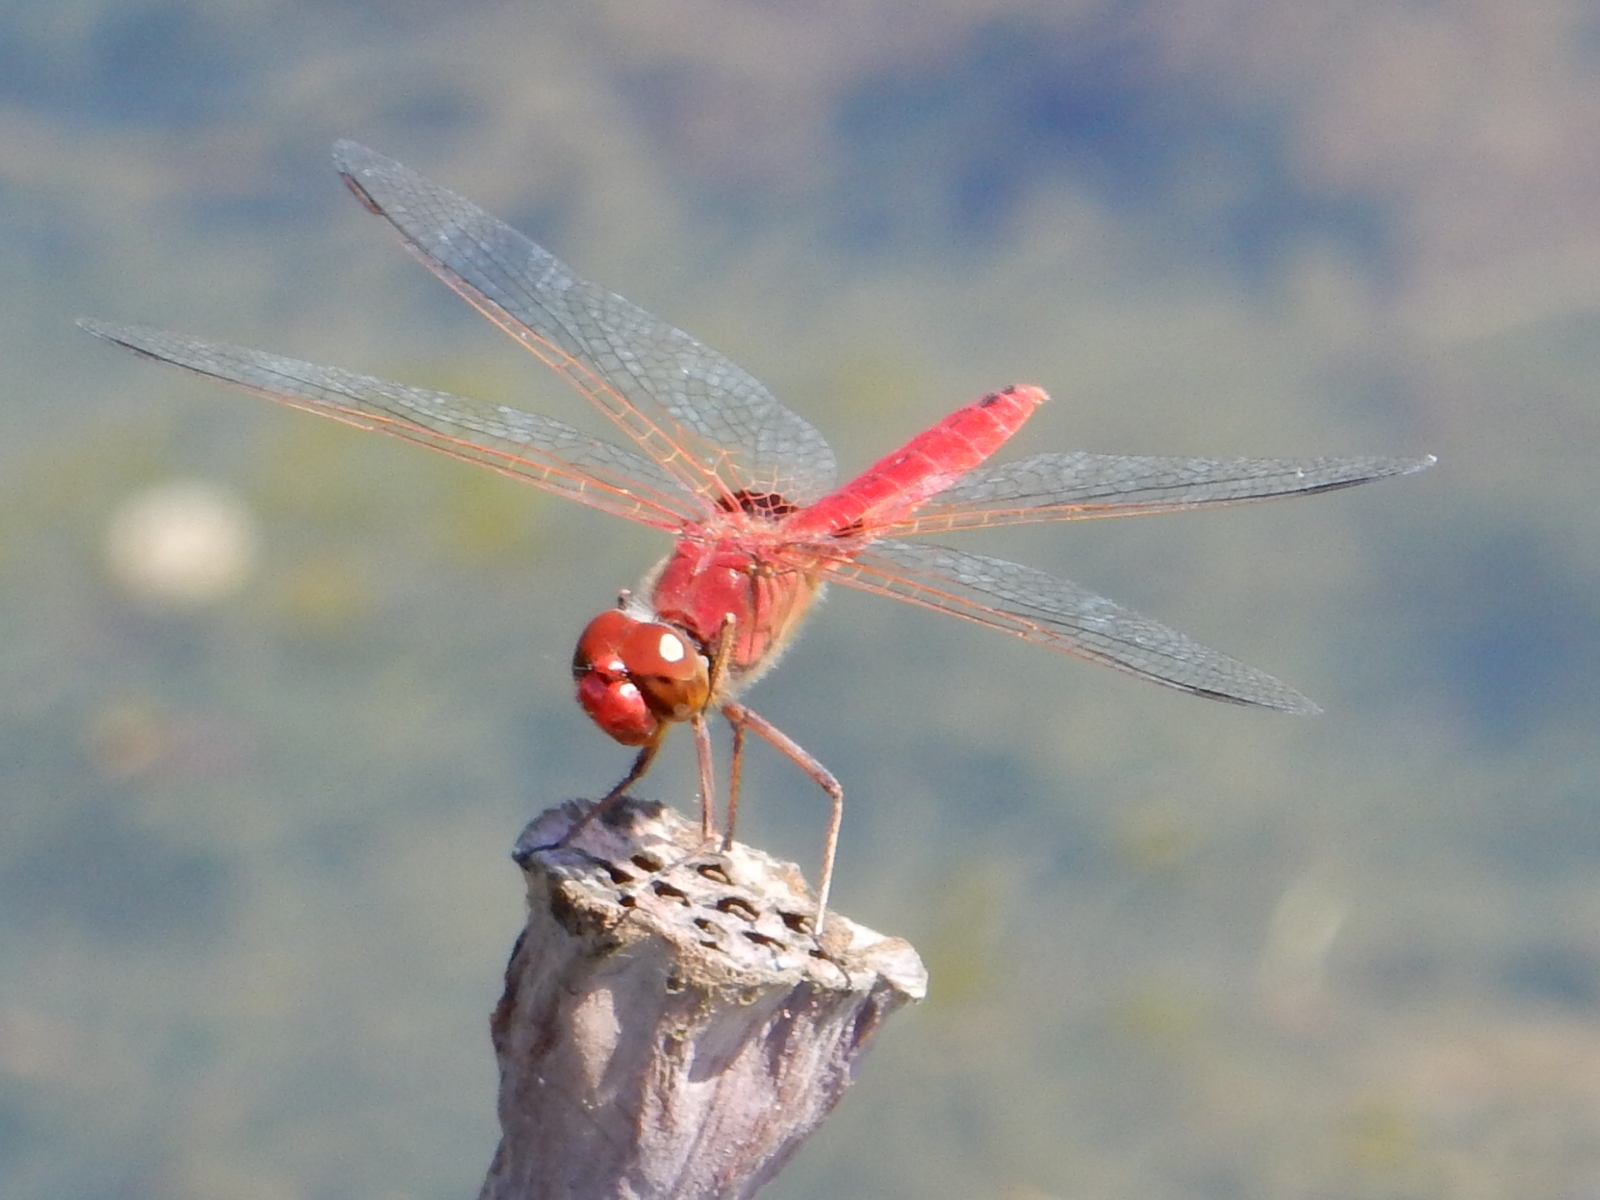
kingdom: Animalia
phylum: Arthropoda
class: Insecta
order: Odonata
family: Libellulidae
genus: Urothemis
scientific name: Urothemis aliena
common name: Red baron
